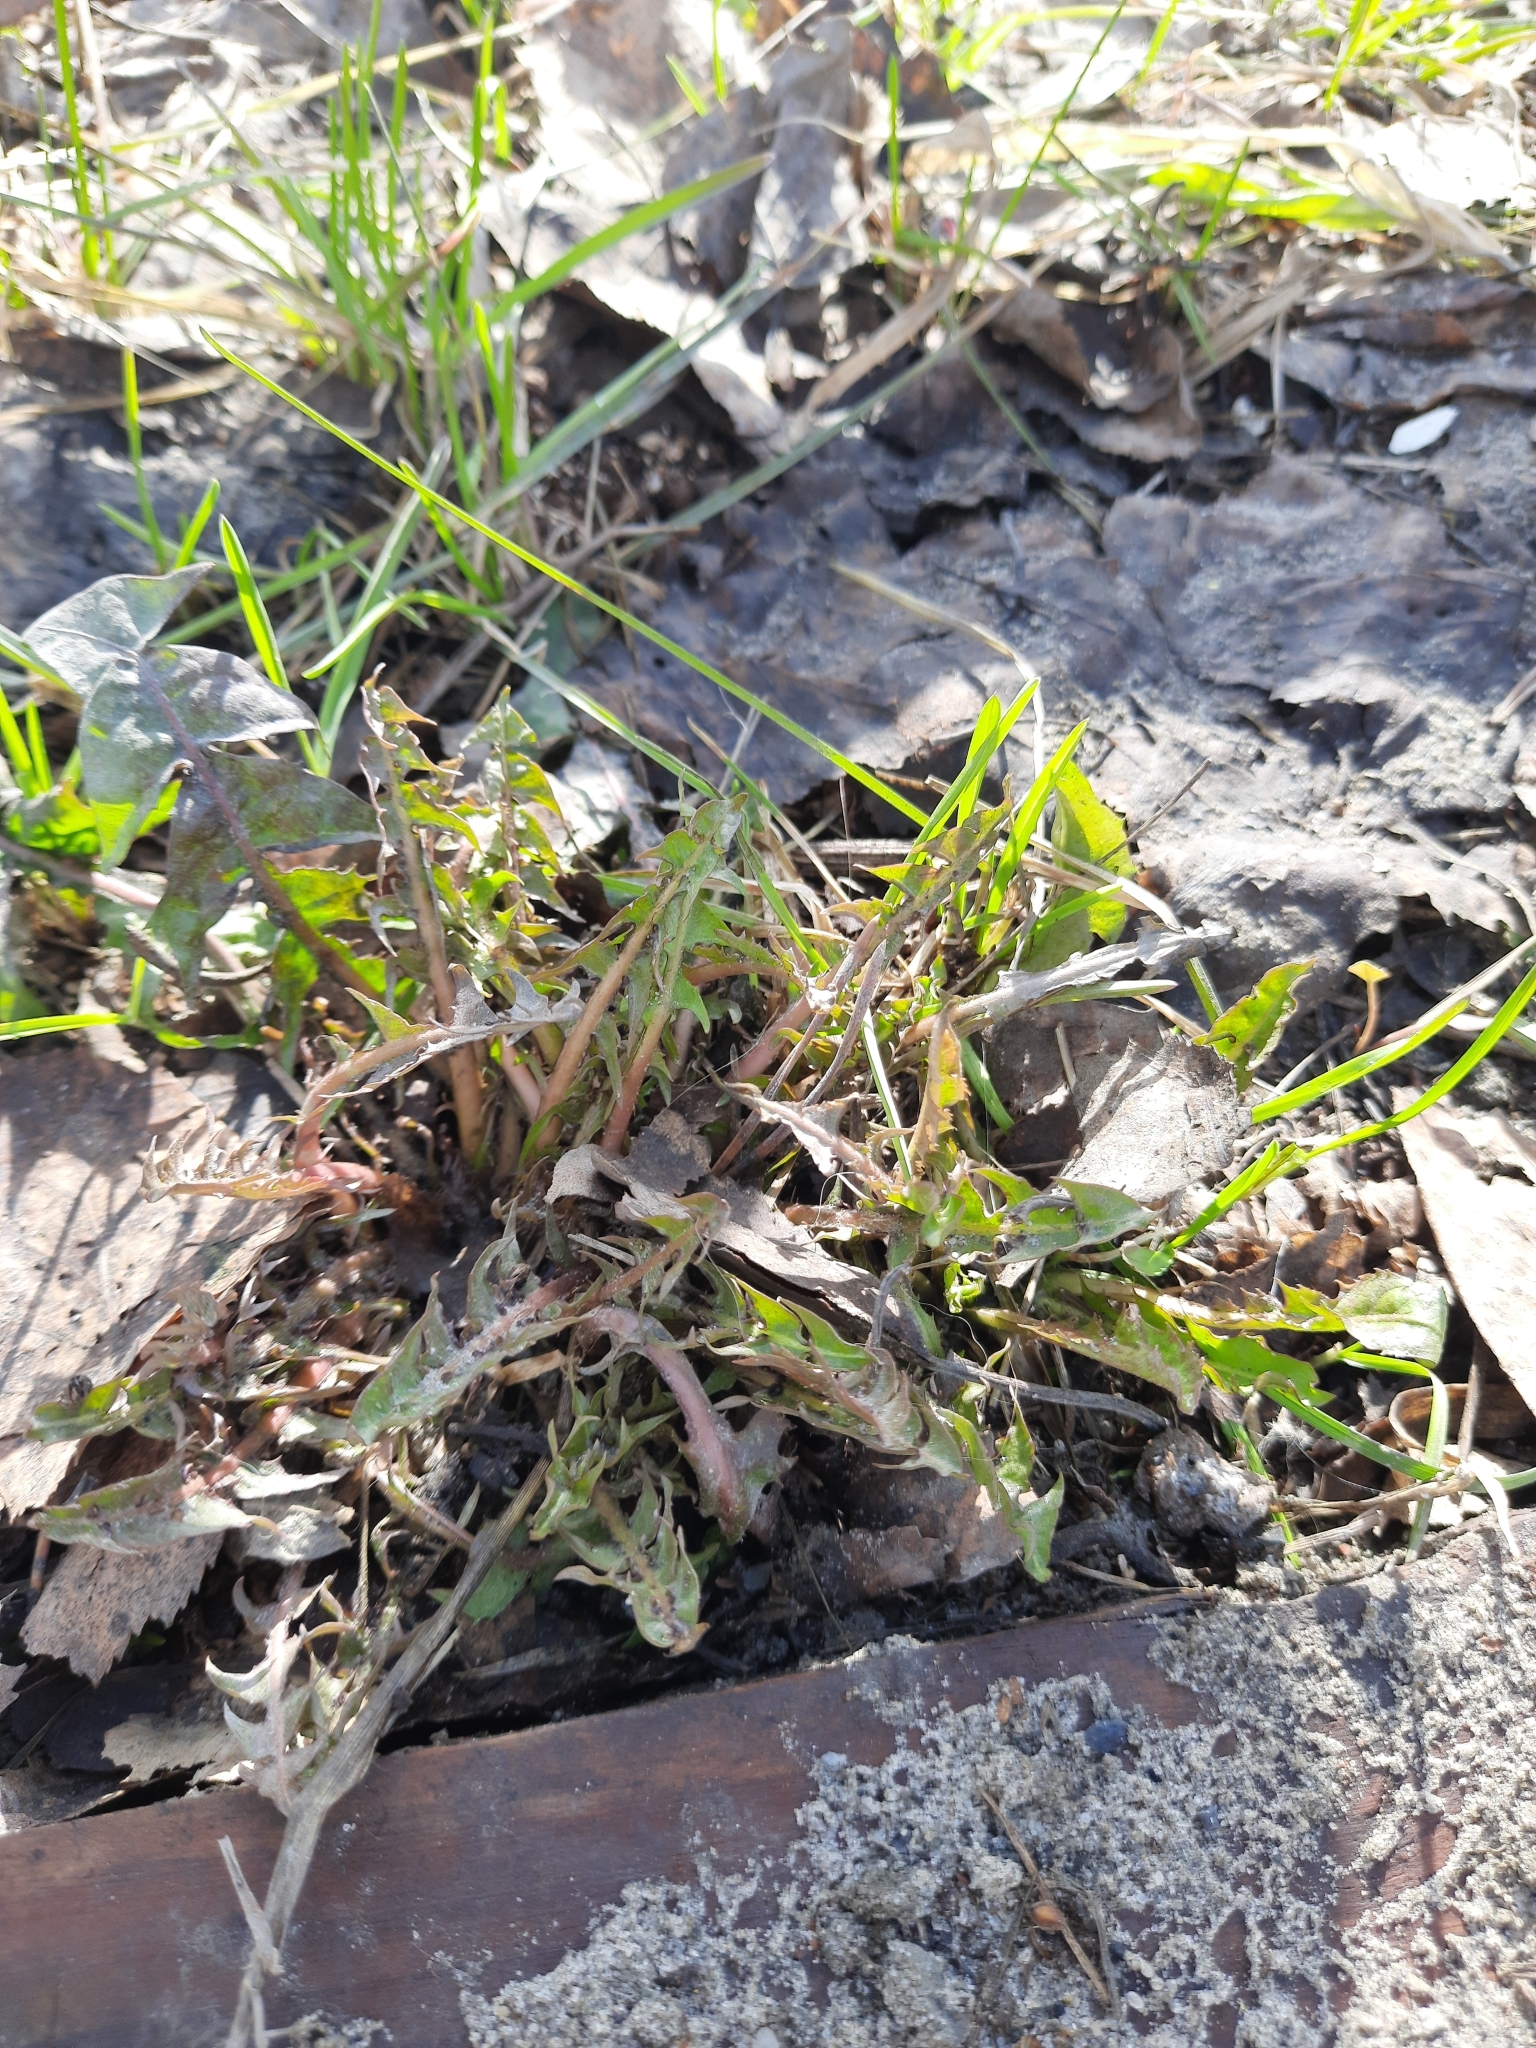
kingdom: Plantae
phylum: Tracheophyta
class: Magnoliopsida
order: Asterales
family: Asteraceae
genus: Taraxacum
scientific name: Taraxacum officinale
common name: Common dandelion
